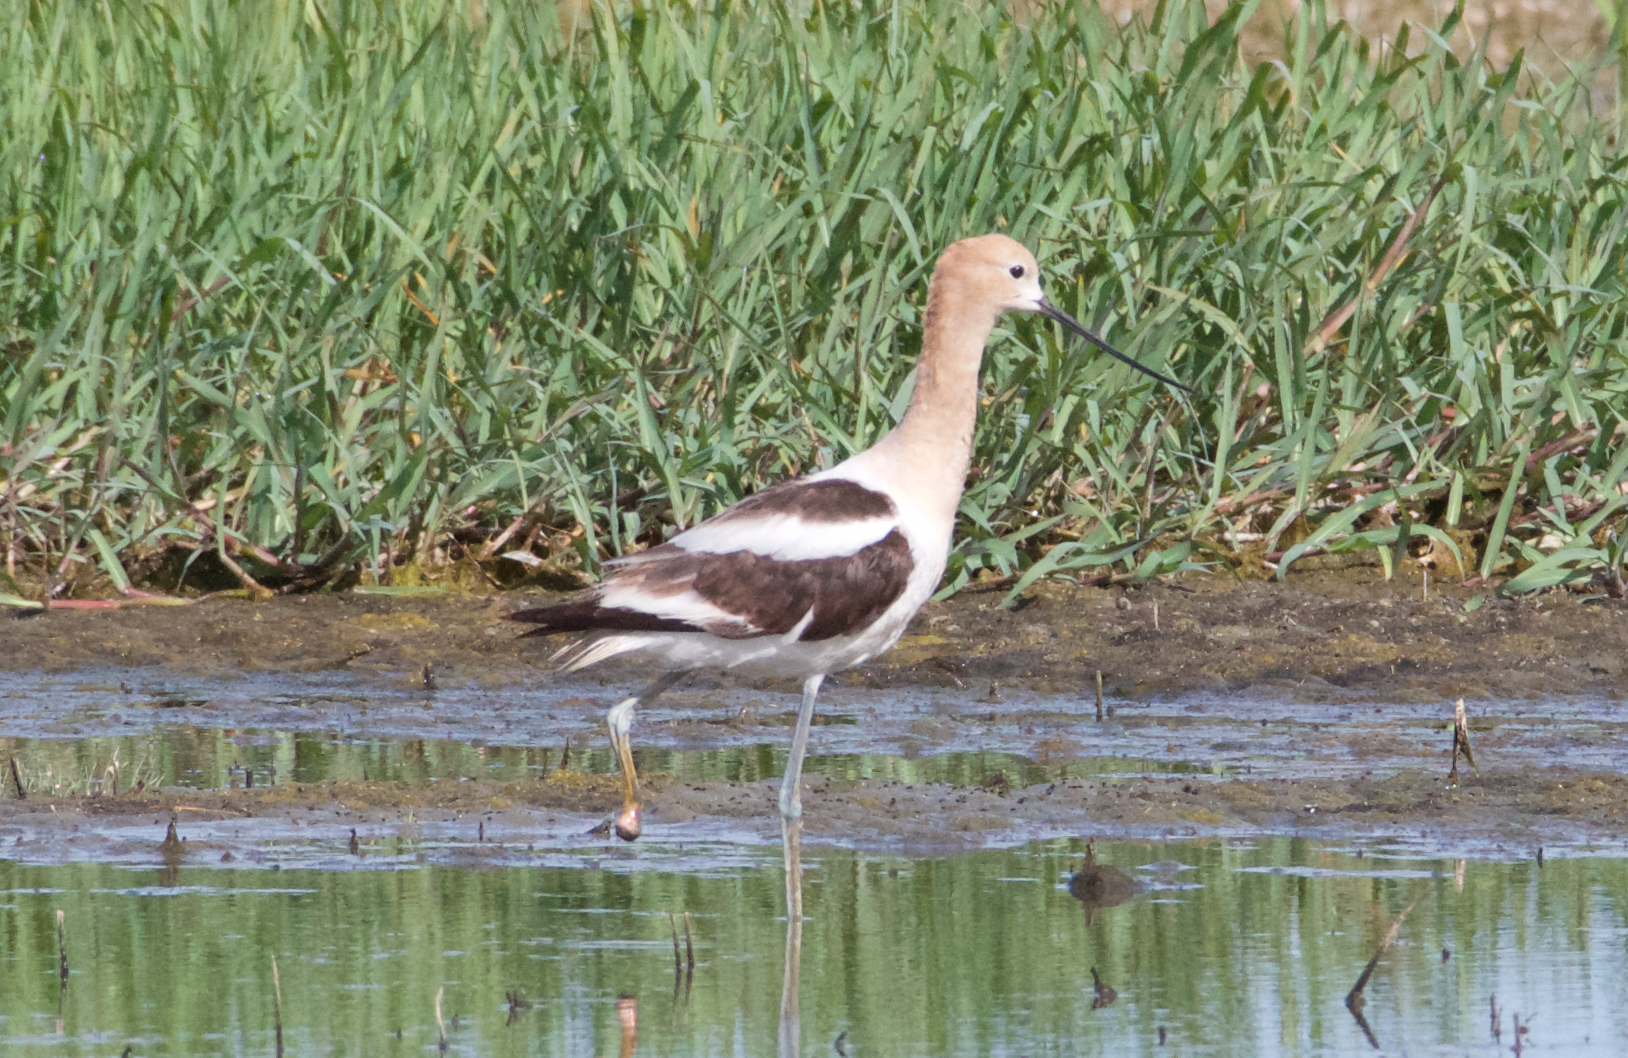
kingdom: Animalia
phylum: Chordata
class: Aves
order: Charadriiformes
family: Recurvirostridae
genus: Recurvirostra
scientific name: Recurvirostra americana
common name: American avocet
